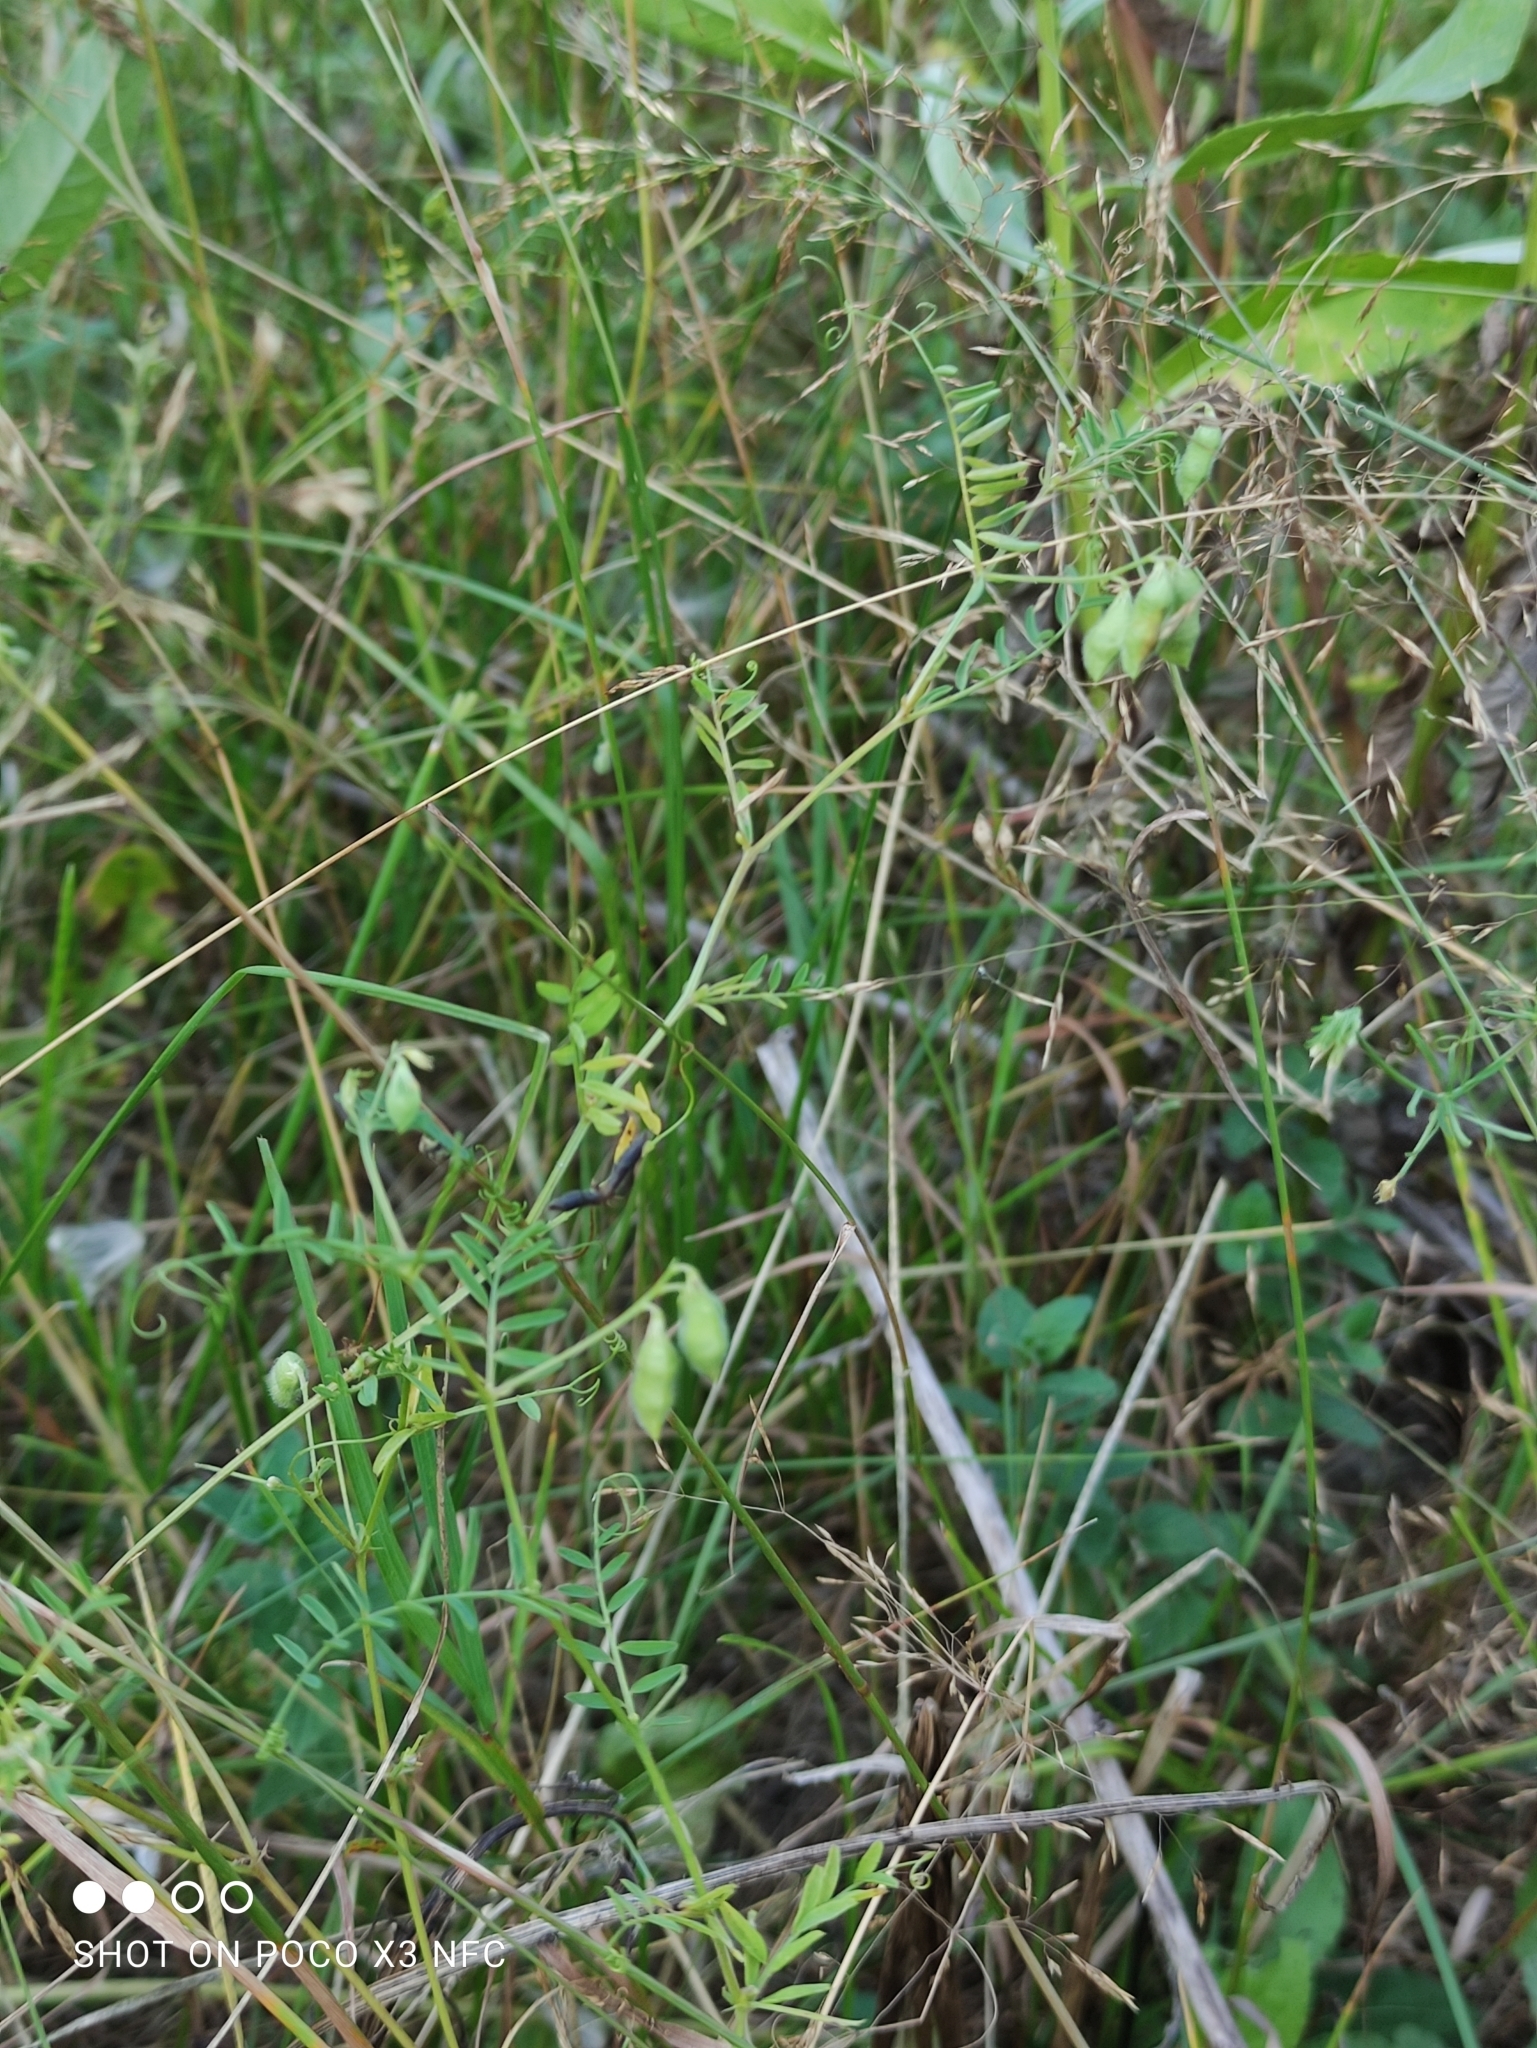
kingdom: Plantae
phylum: Tracheophyta
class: Magnoliopsida
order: Fabales
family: Fabaceae
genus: Vicia
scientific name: Vicia hirsuta
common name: Tiny vetch
